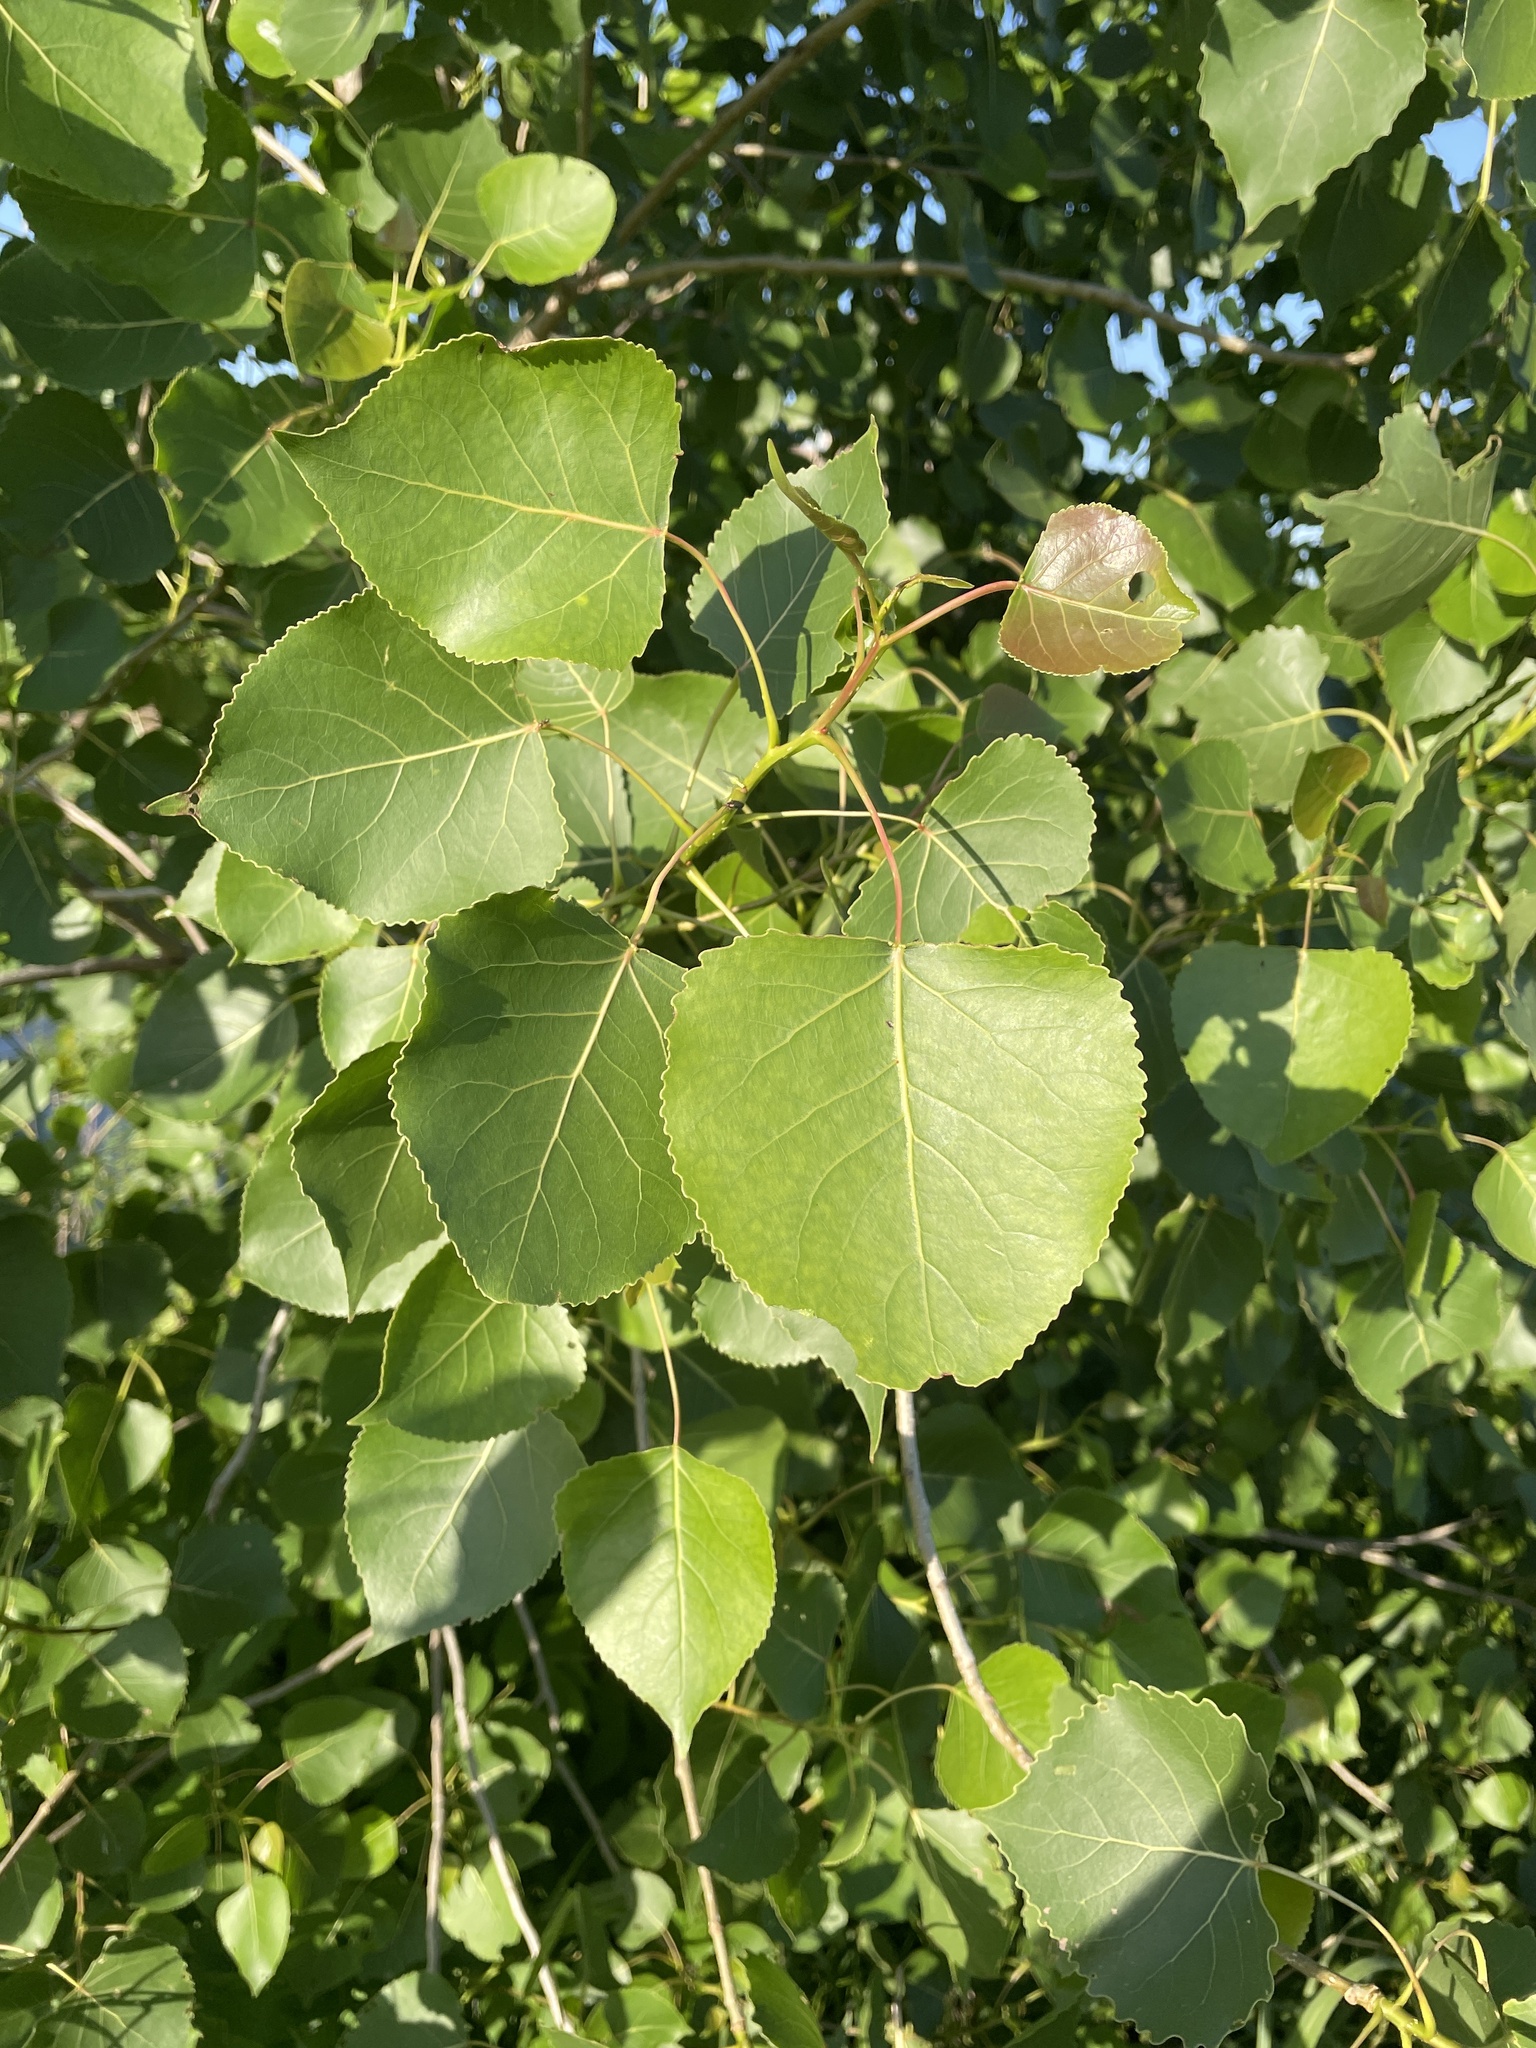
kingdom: Plantae
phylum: Tracheophyta
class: Magnoliopsida
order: Malpighiales
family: Salicaceae
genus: Populus
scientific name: Populus deltoides
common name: Eastern cottonwood
